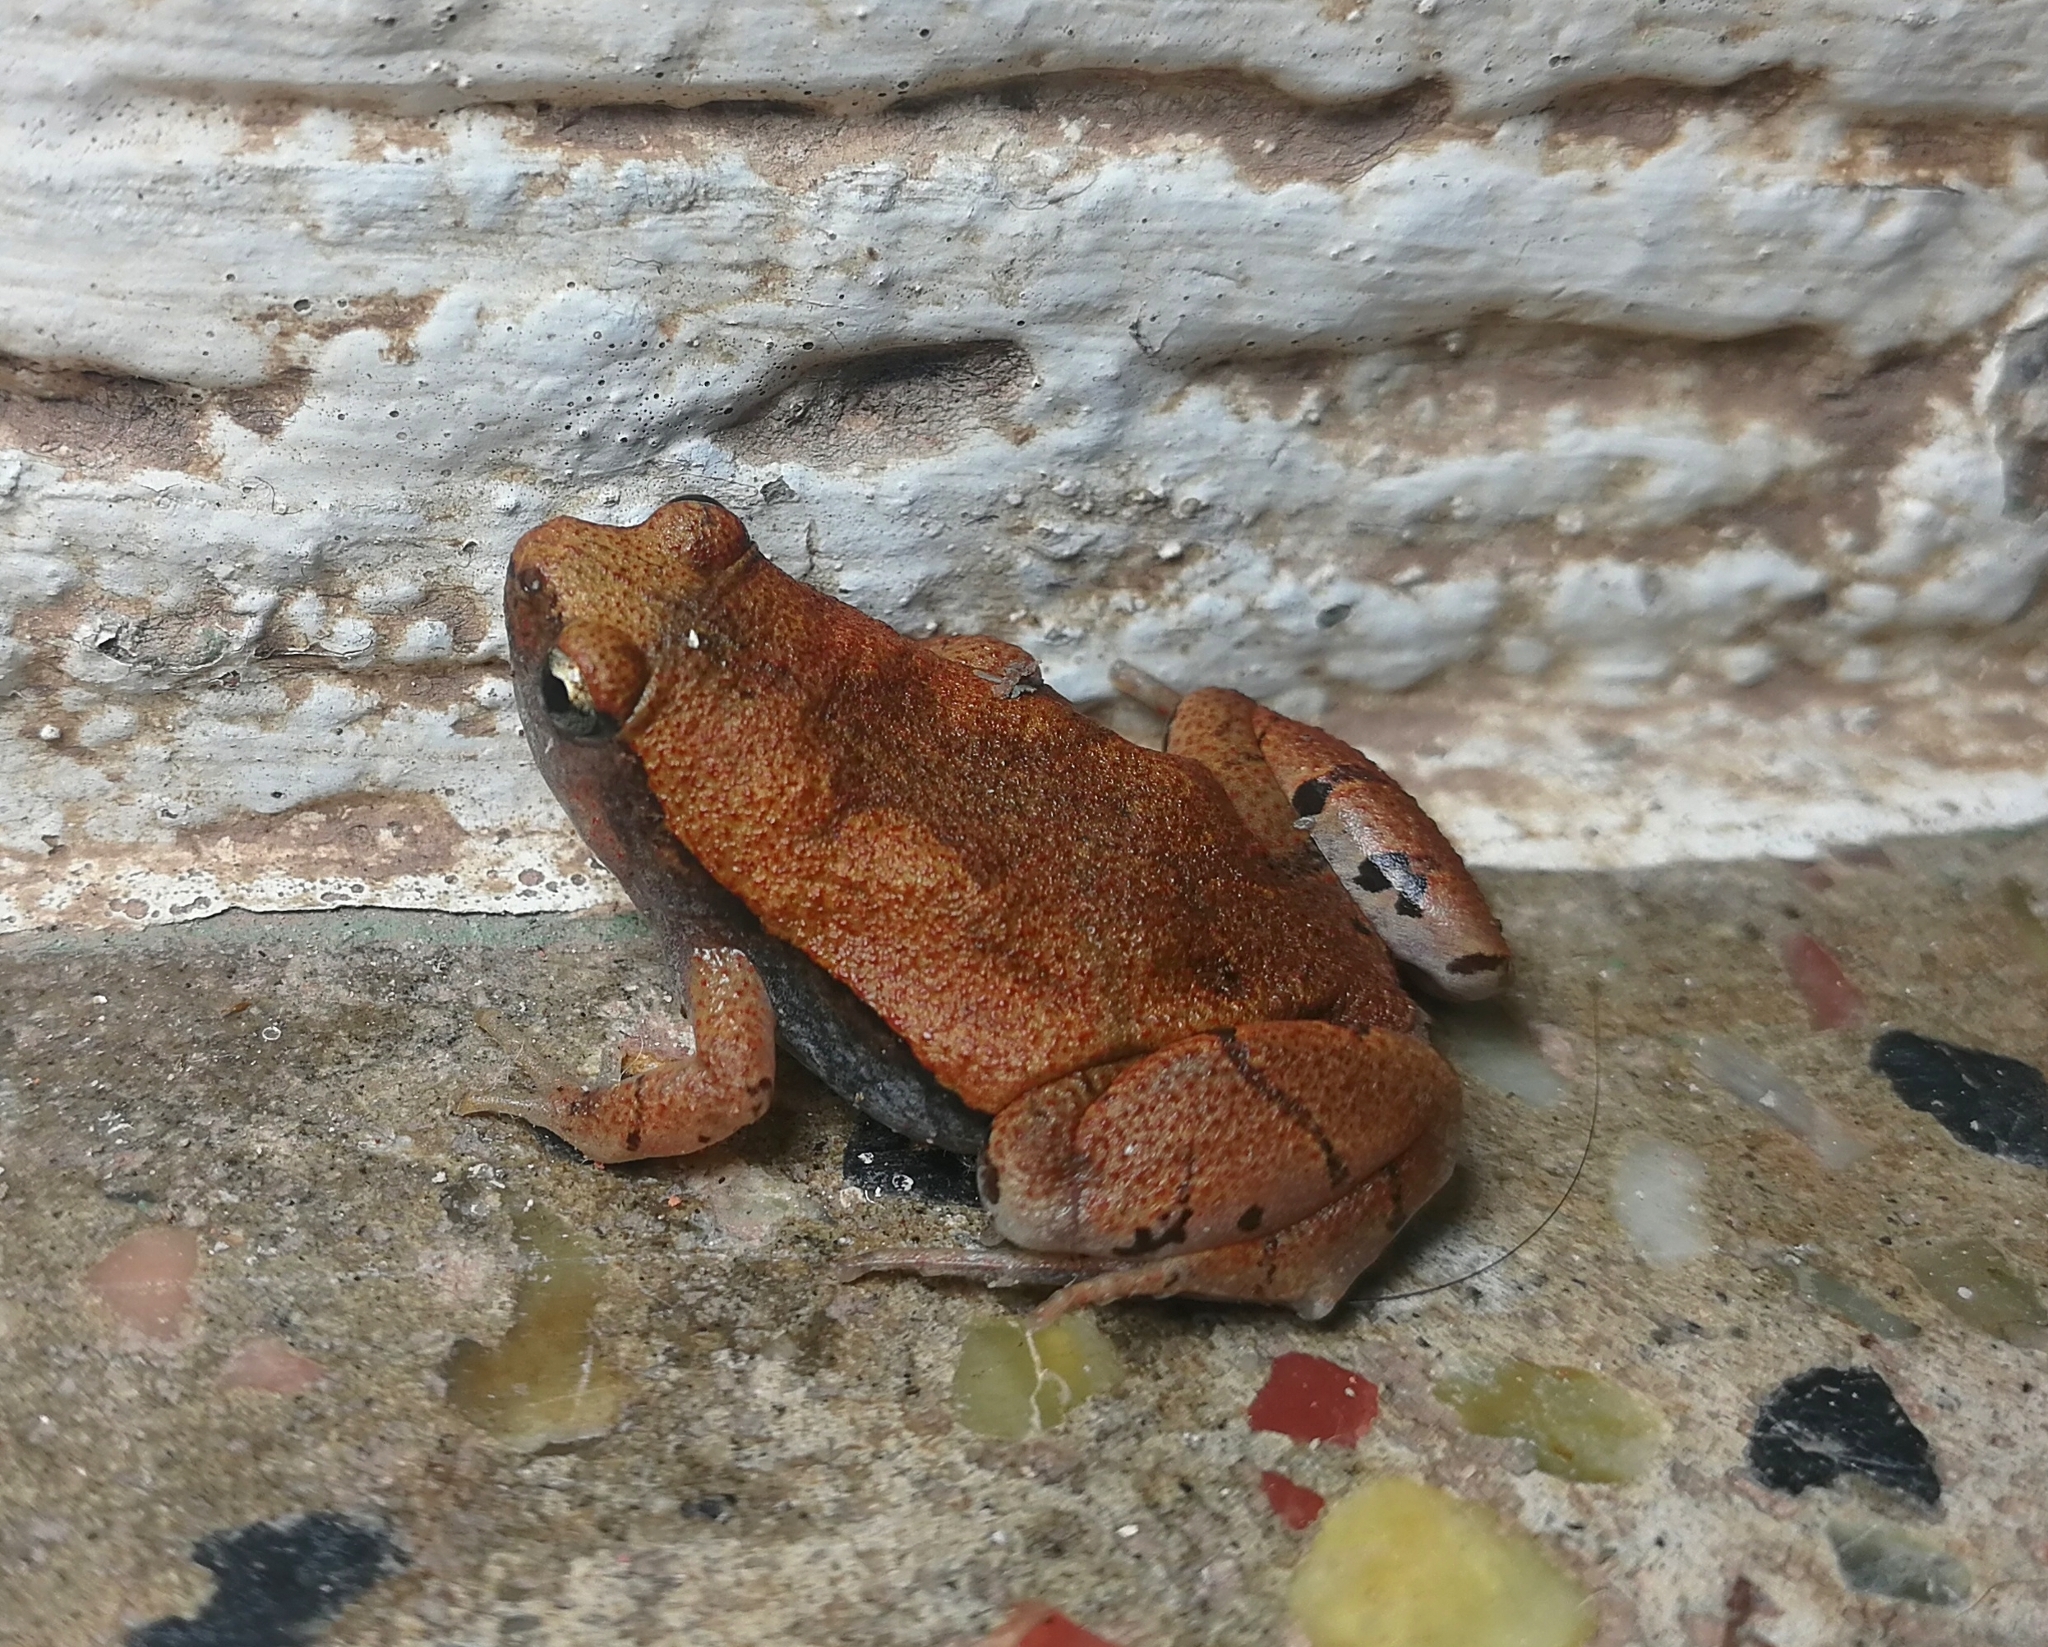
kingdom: Animalia
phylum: Chordata
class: Amphibia
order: Anura
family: Microhylidae
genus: Microhyla
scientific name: Microhyla rubra
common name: Guangdong rice frog
